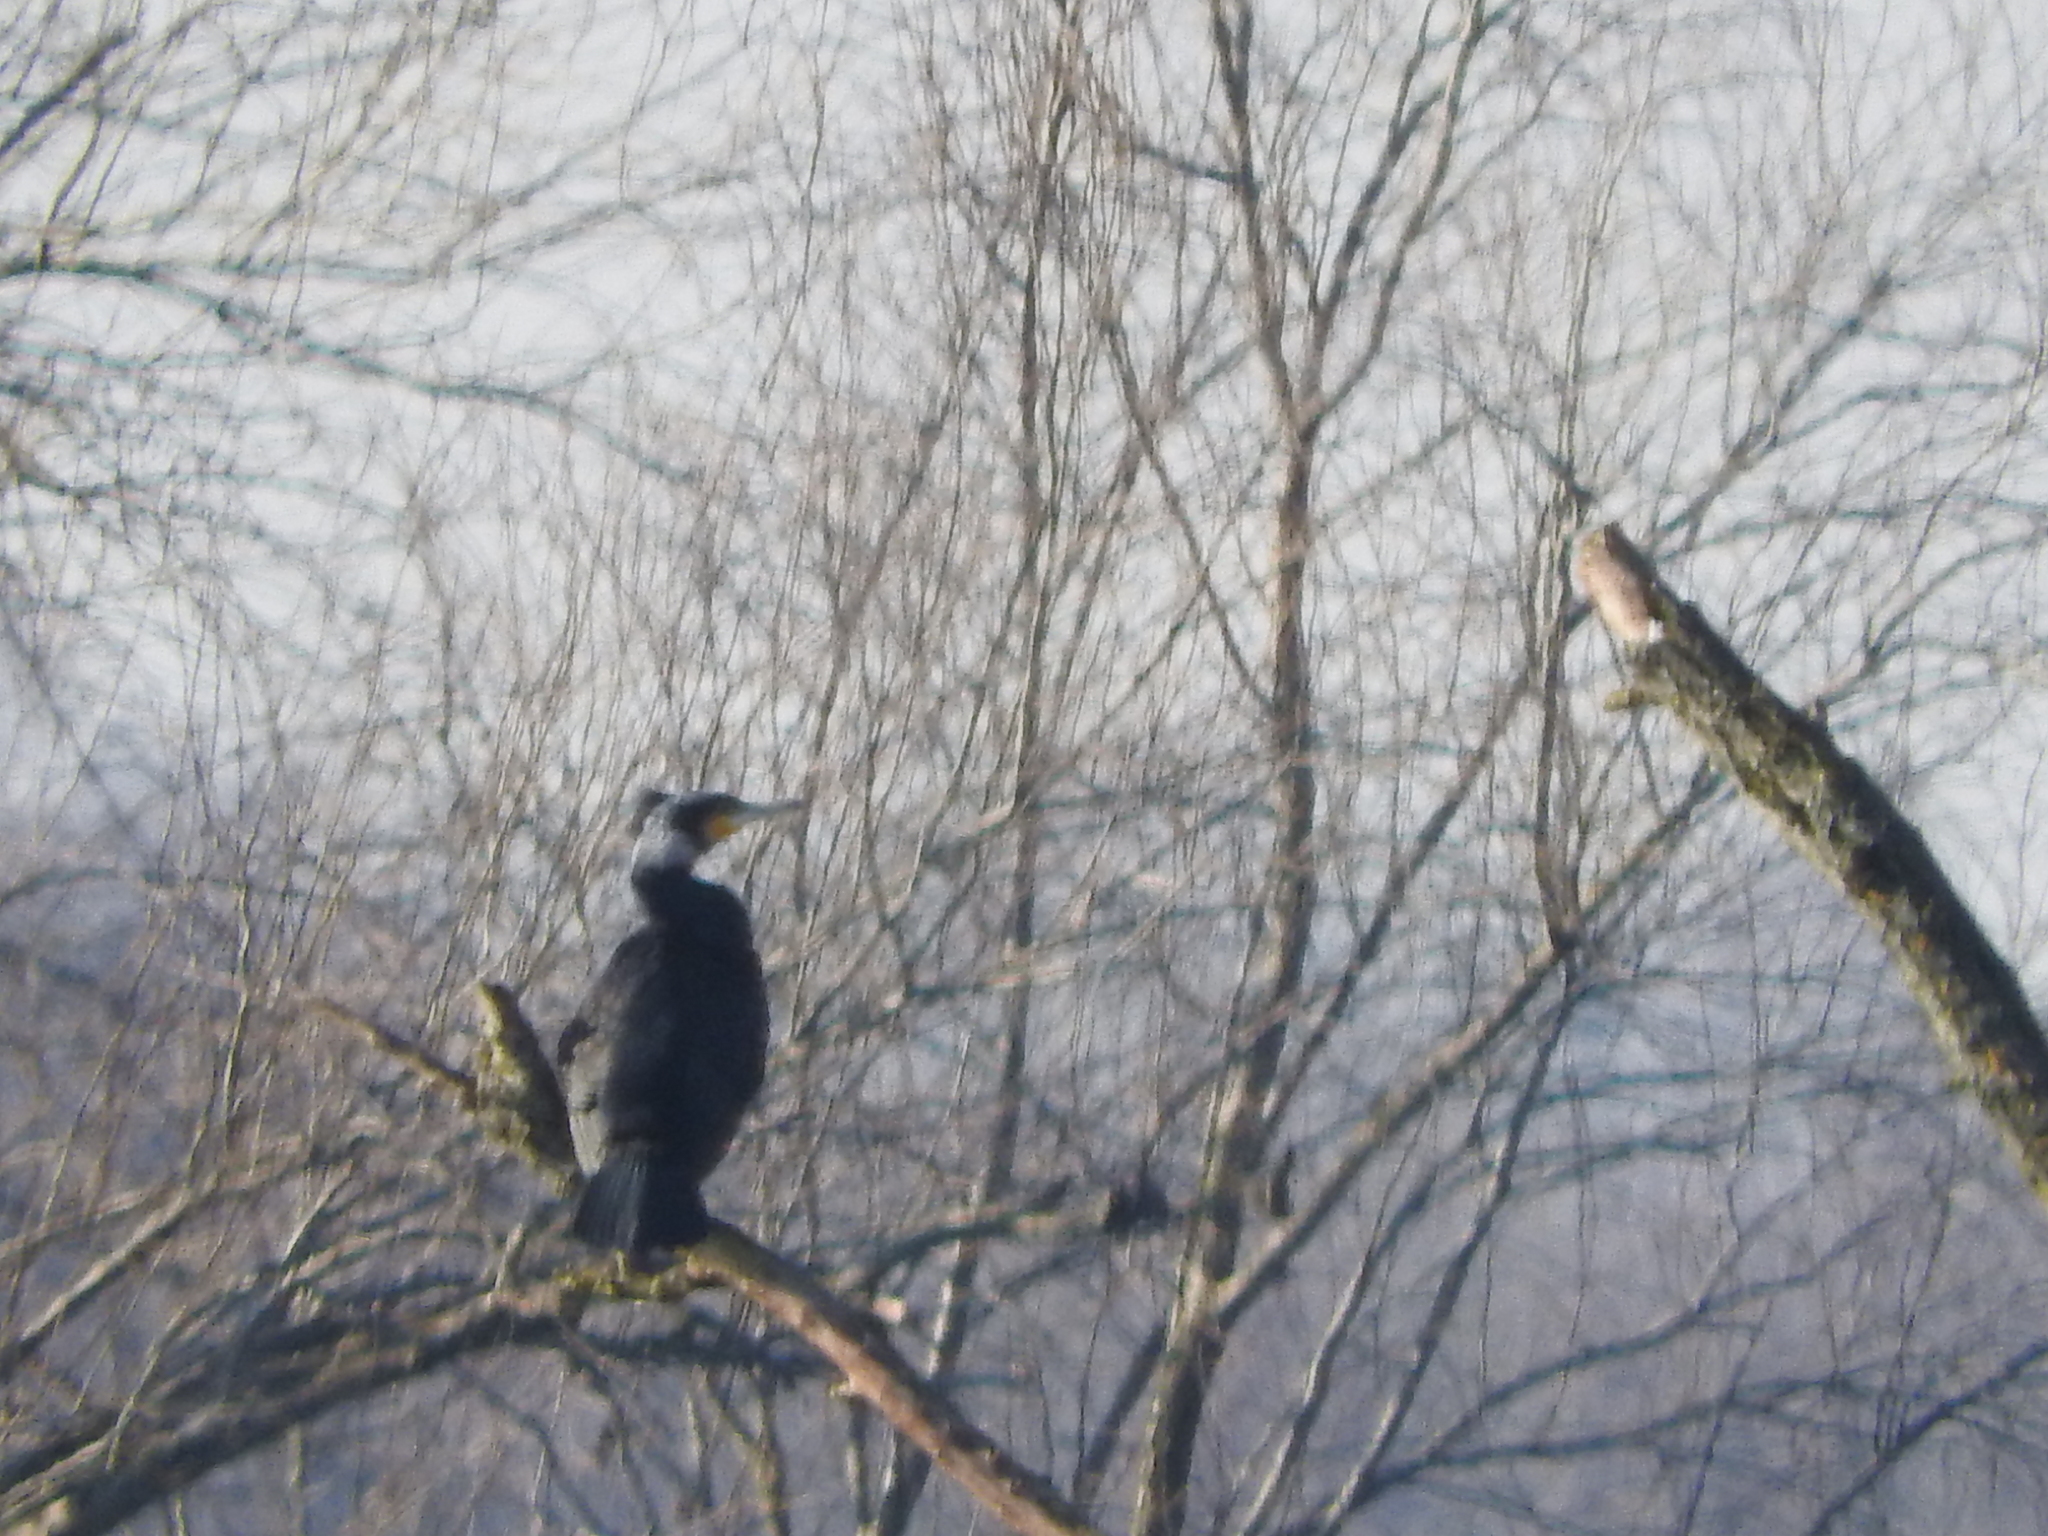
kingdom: Animalia
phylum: Chordata
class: Aves
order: Suliformes
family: Phalacrocoracidae
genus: Phalacrocorax
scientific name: Phalacrocorax carbo
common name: Great cormorant
